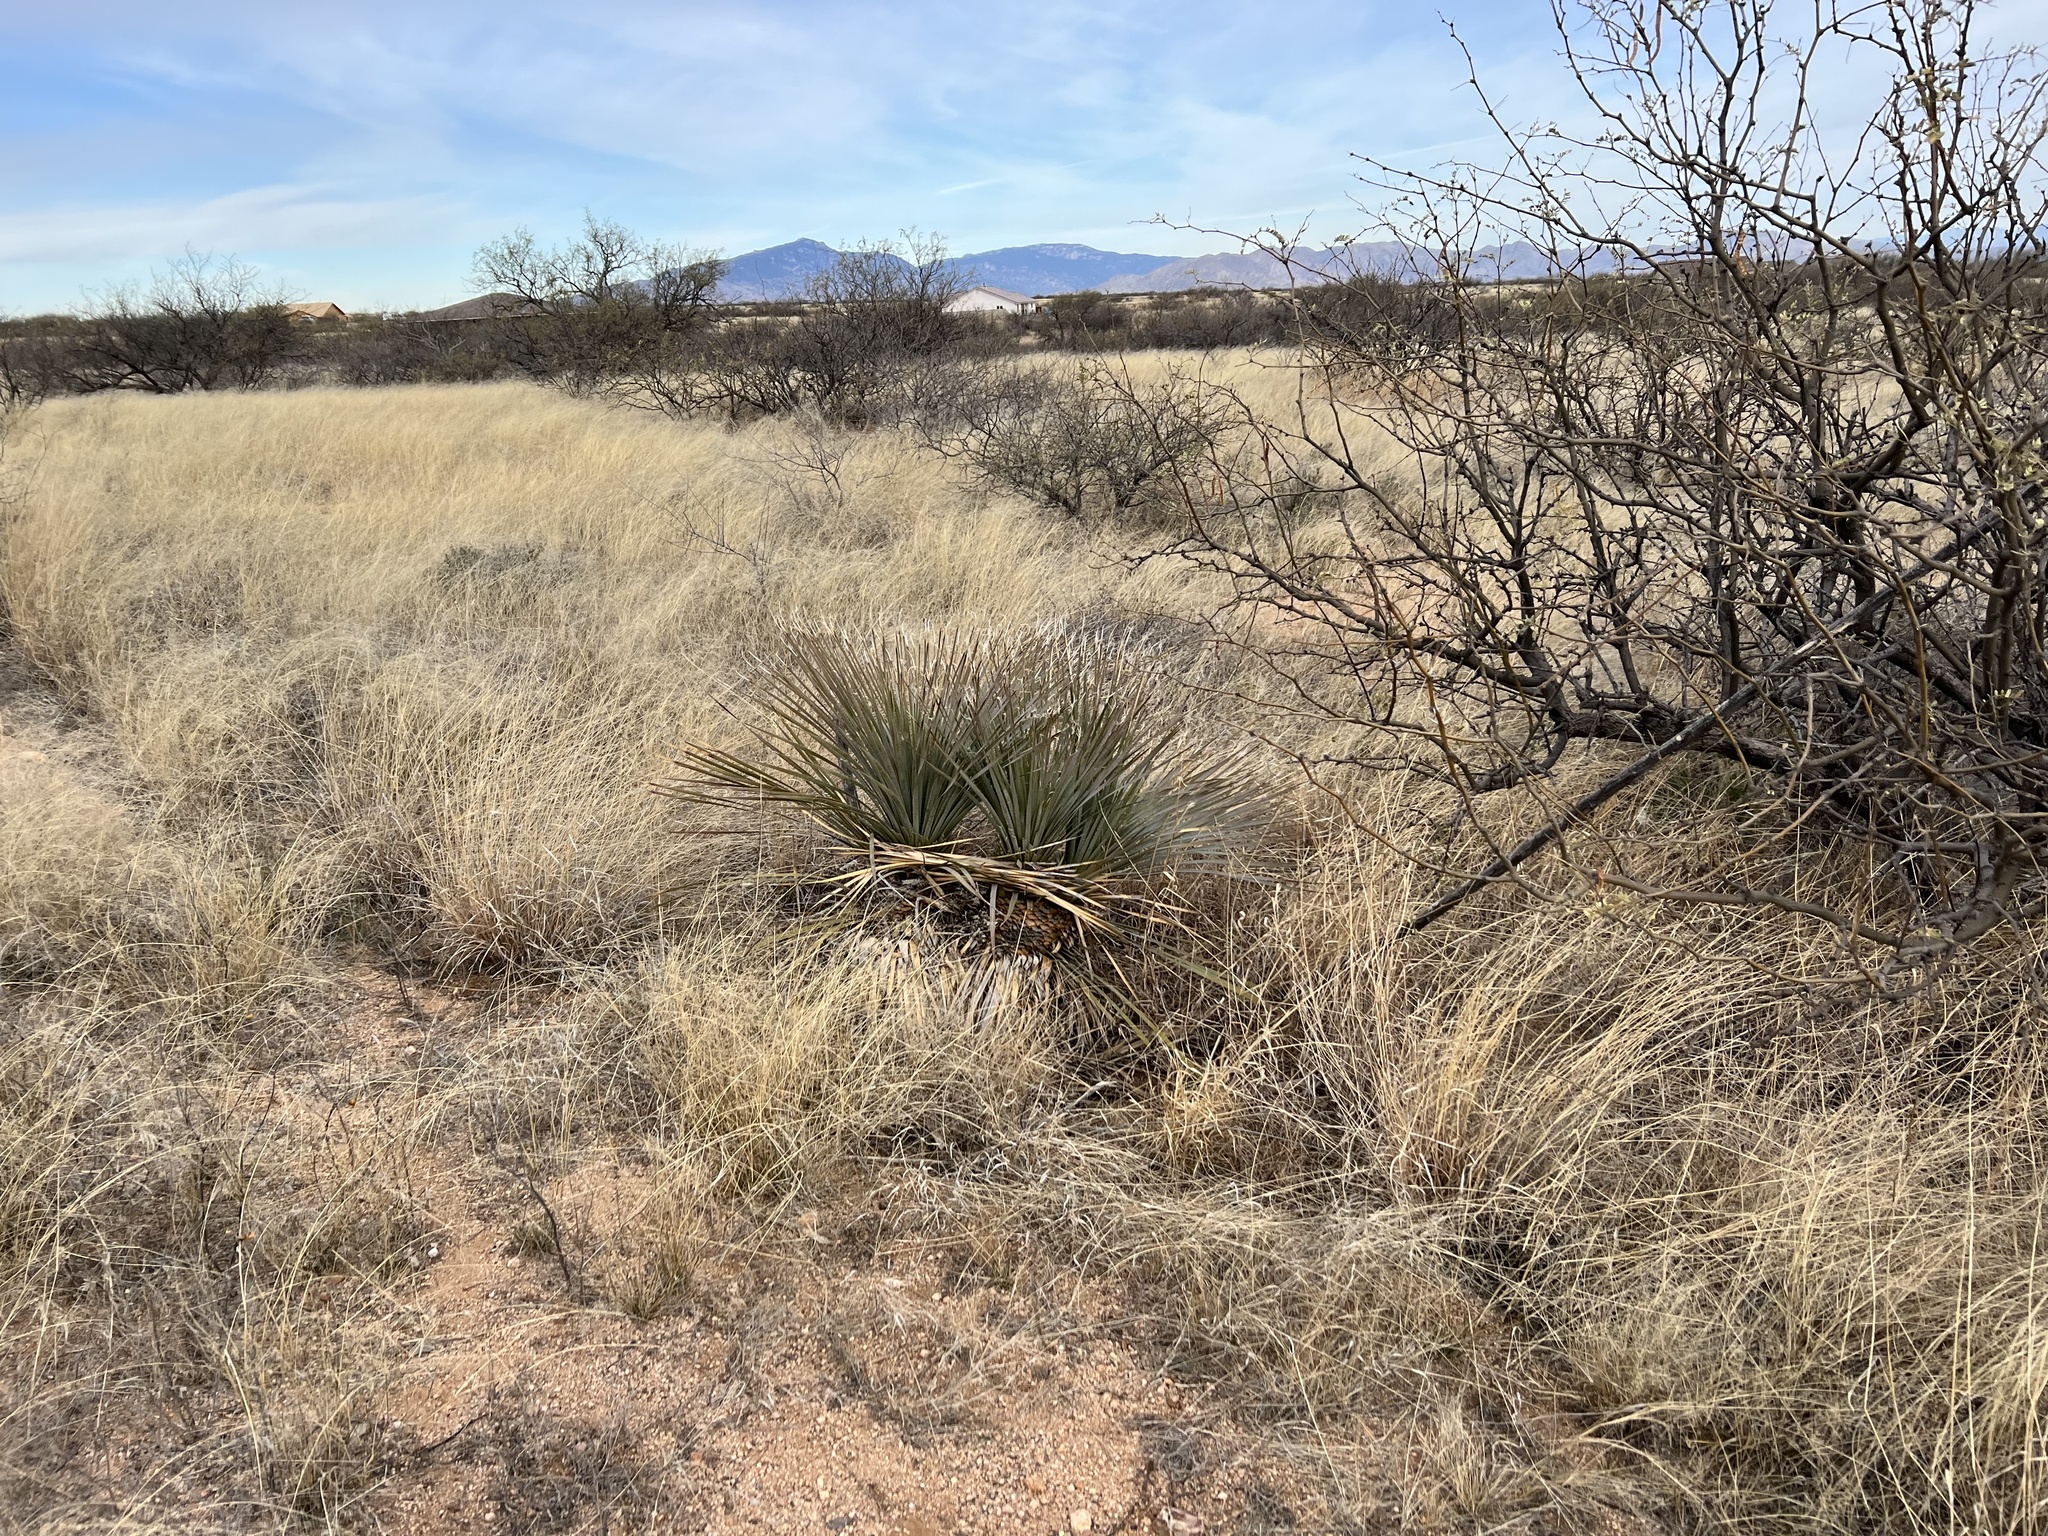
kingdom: Plantae
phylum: Tracheophyta
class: Liliopsida
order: Asparagales
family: Asparagaceae
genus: Dasylirion
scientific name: Dasylirion wheeleri
